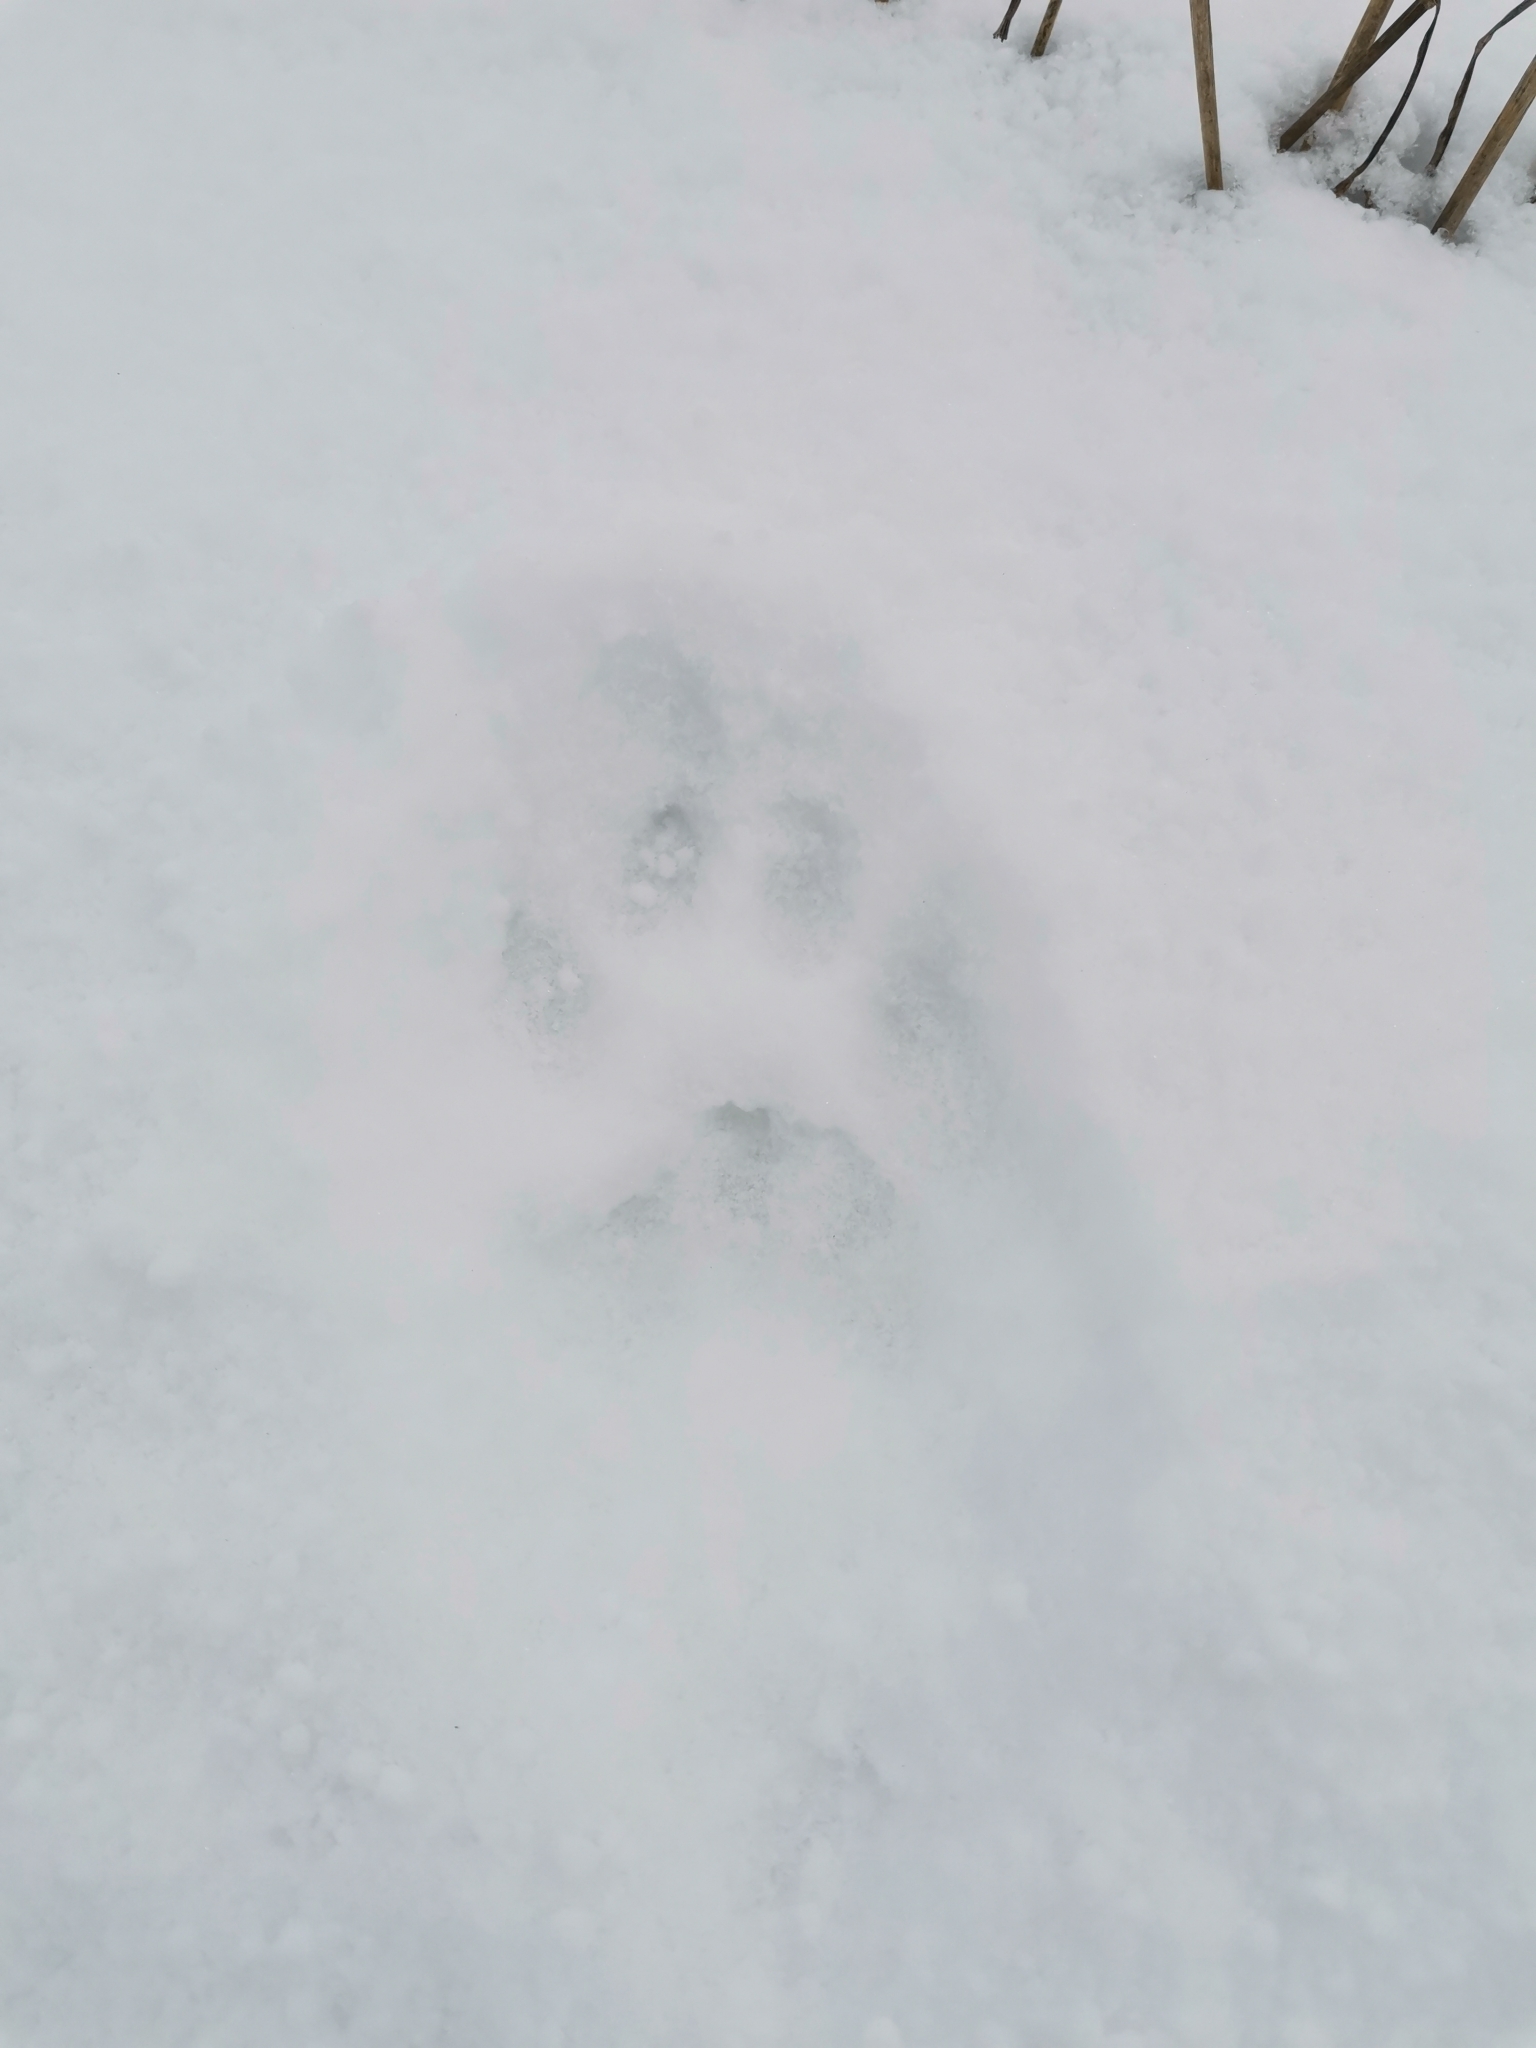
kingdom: Animalia
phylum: Chordata
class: Mammalia
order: Carnivora
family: Felidae
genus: Lynx
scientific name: Lynx lynx
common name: Eurasian lynx
